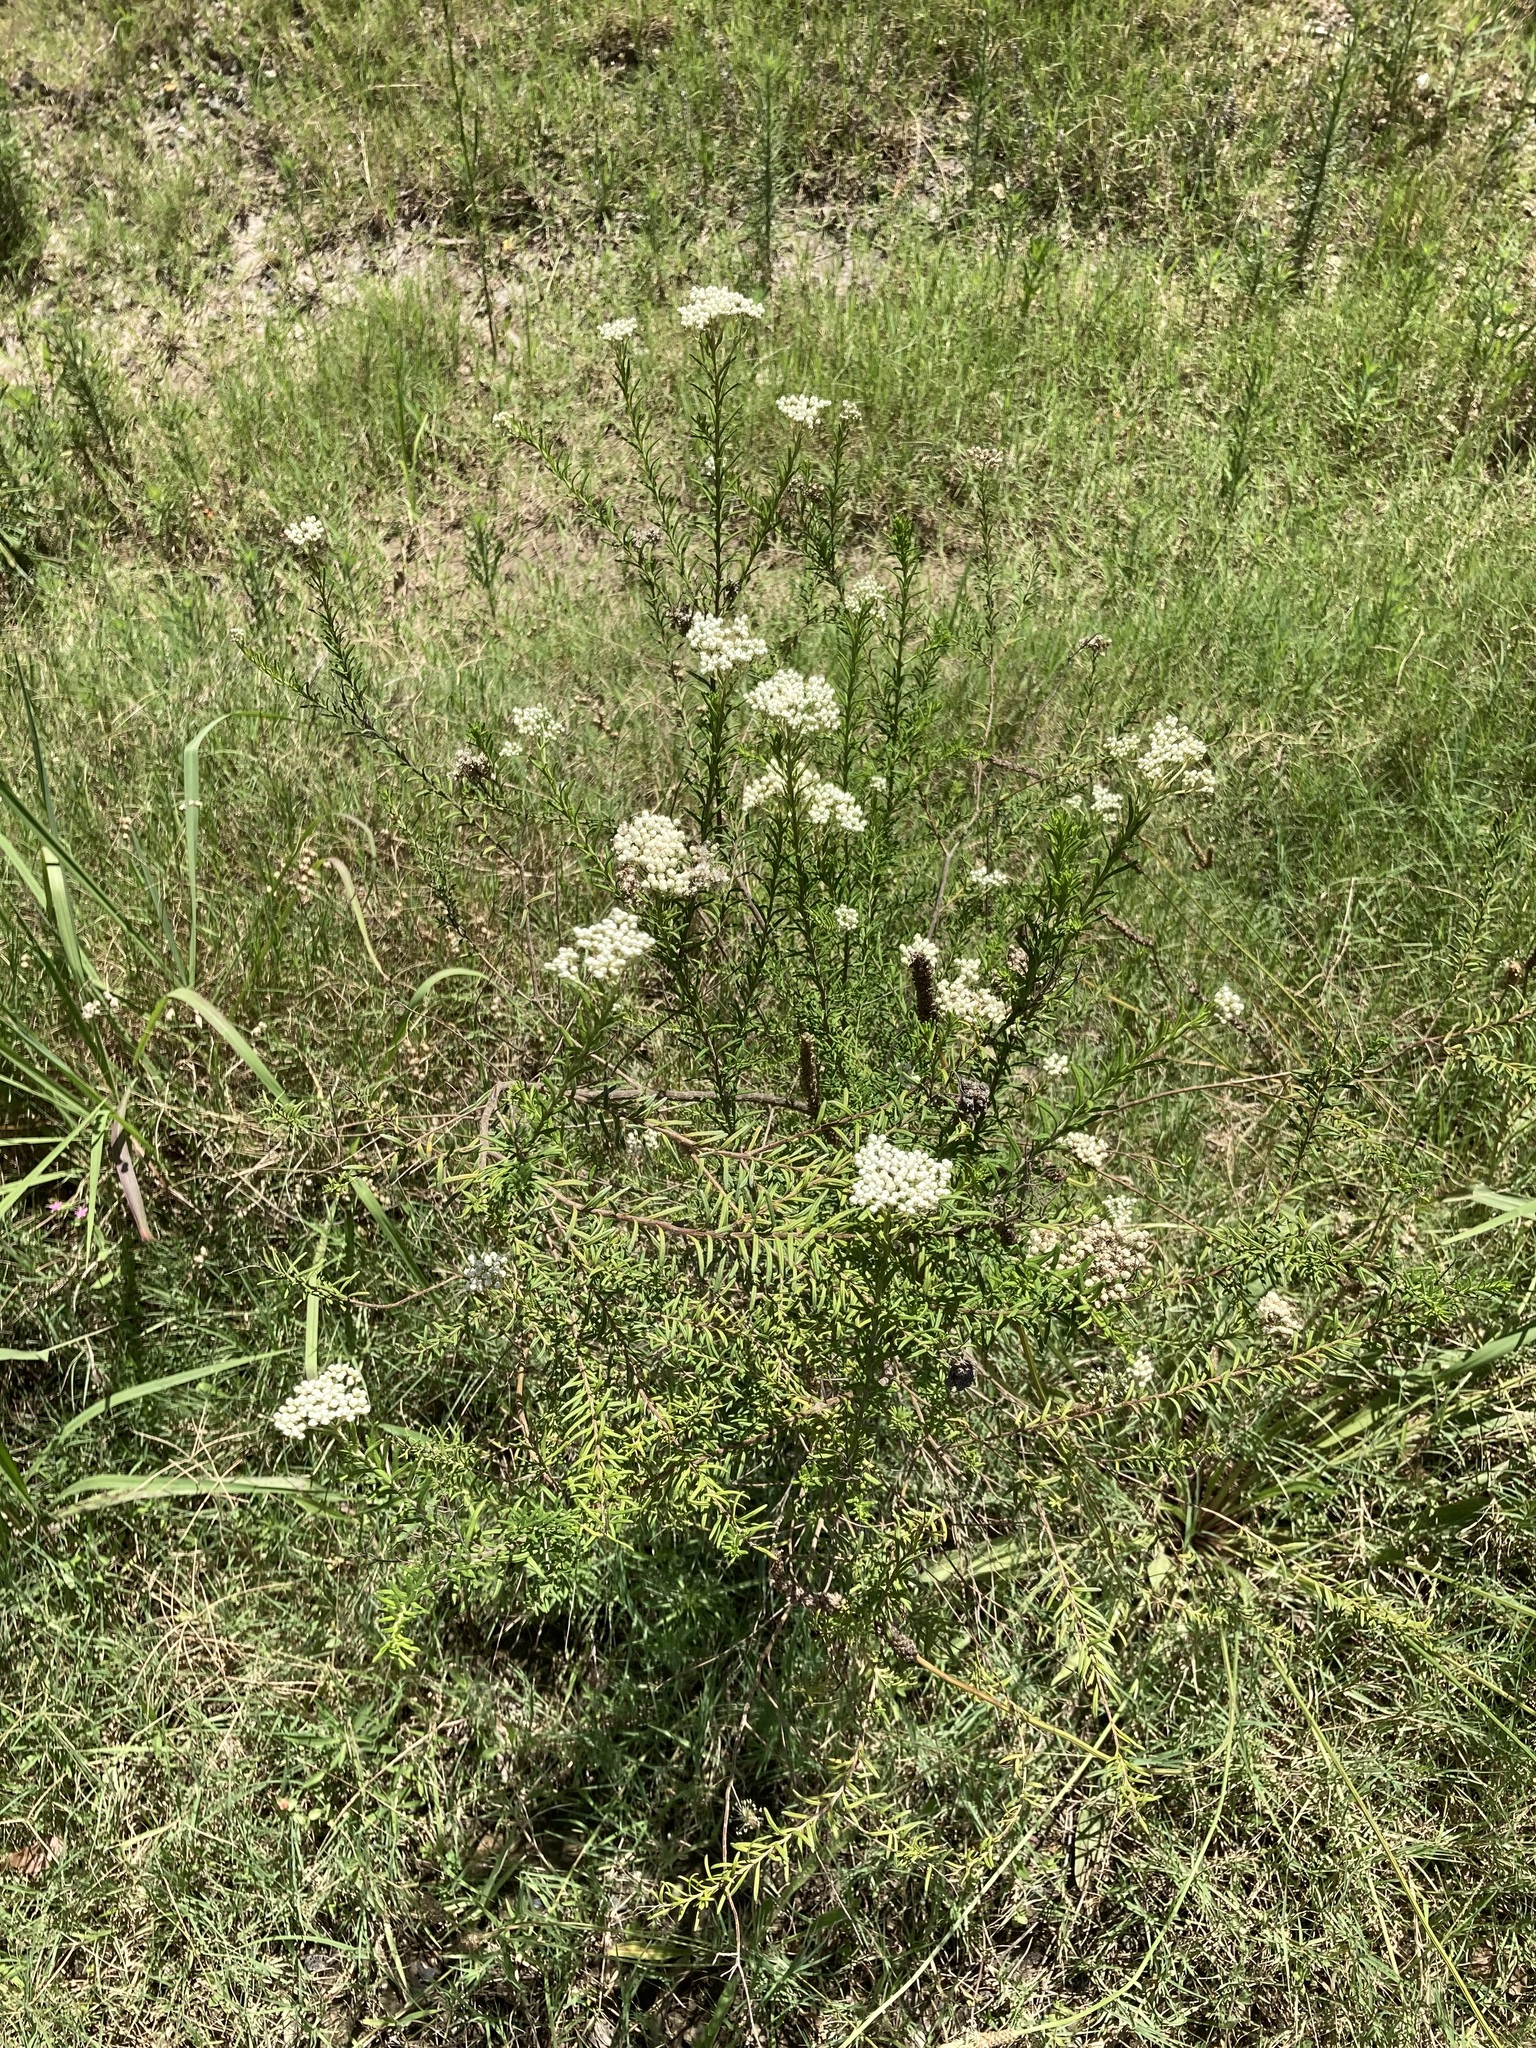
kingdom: Plantae
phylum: Tracheophyta
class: Magnoliopsida
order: Asterales
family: Asteraceae
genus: Ozothamnus
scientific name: Ozothamnus diosmifolius
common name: White-dogwood
